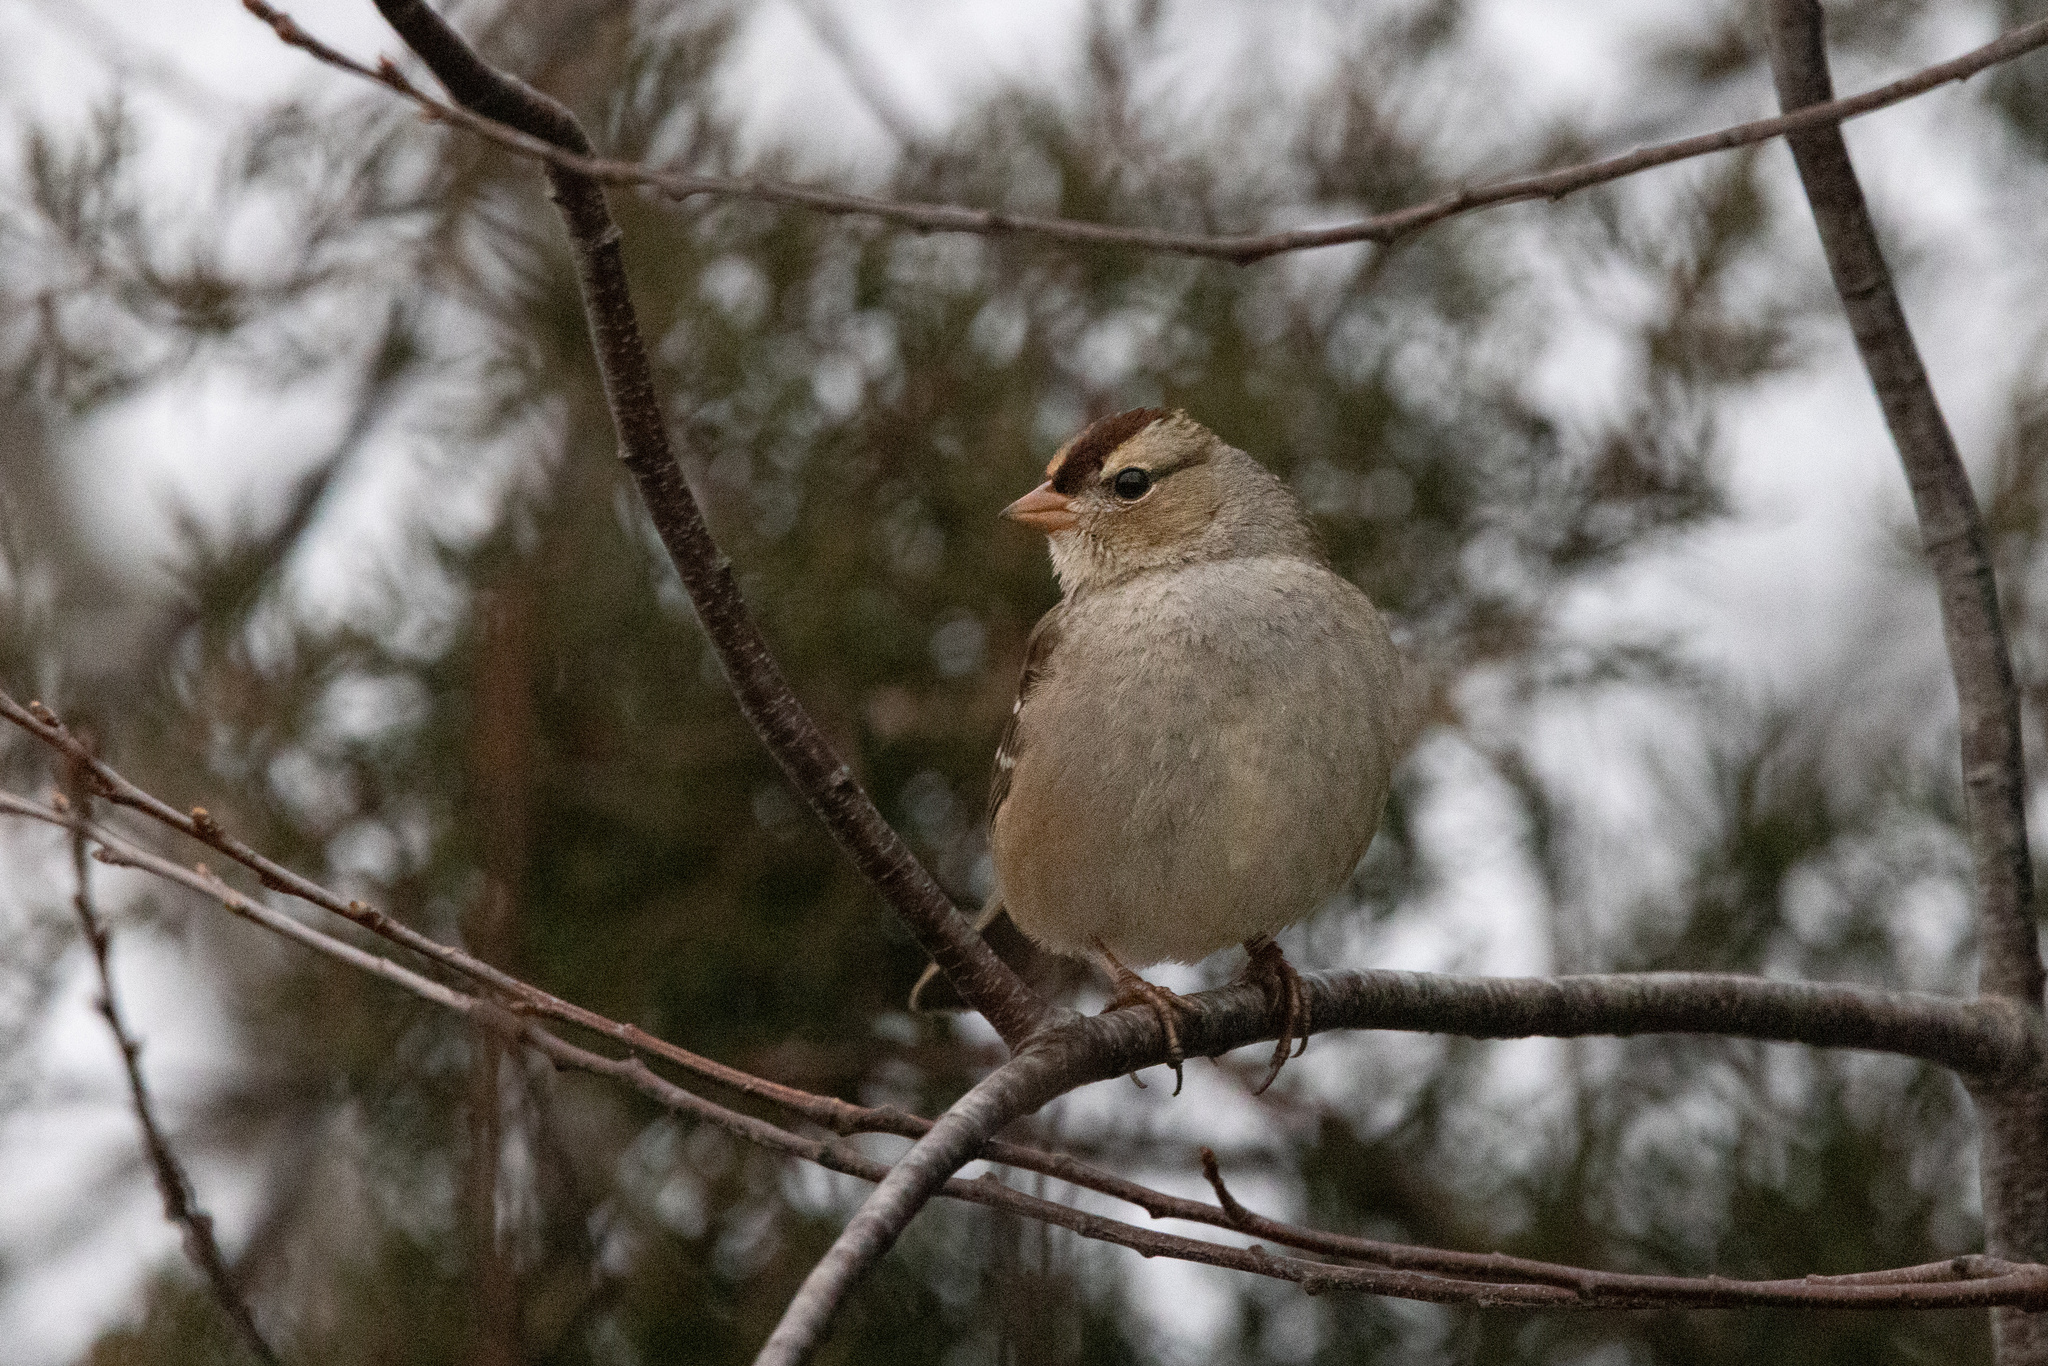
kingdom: Animalia
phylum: Chordata
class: Aves
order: Passeriformes
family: Passerellidae
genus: Zonotrichia
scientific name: Zonotrichia leucophrys
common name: White-crowned sparrow
